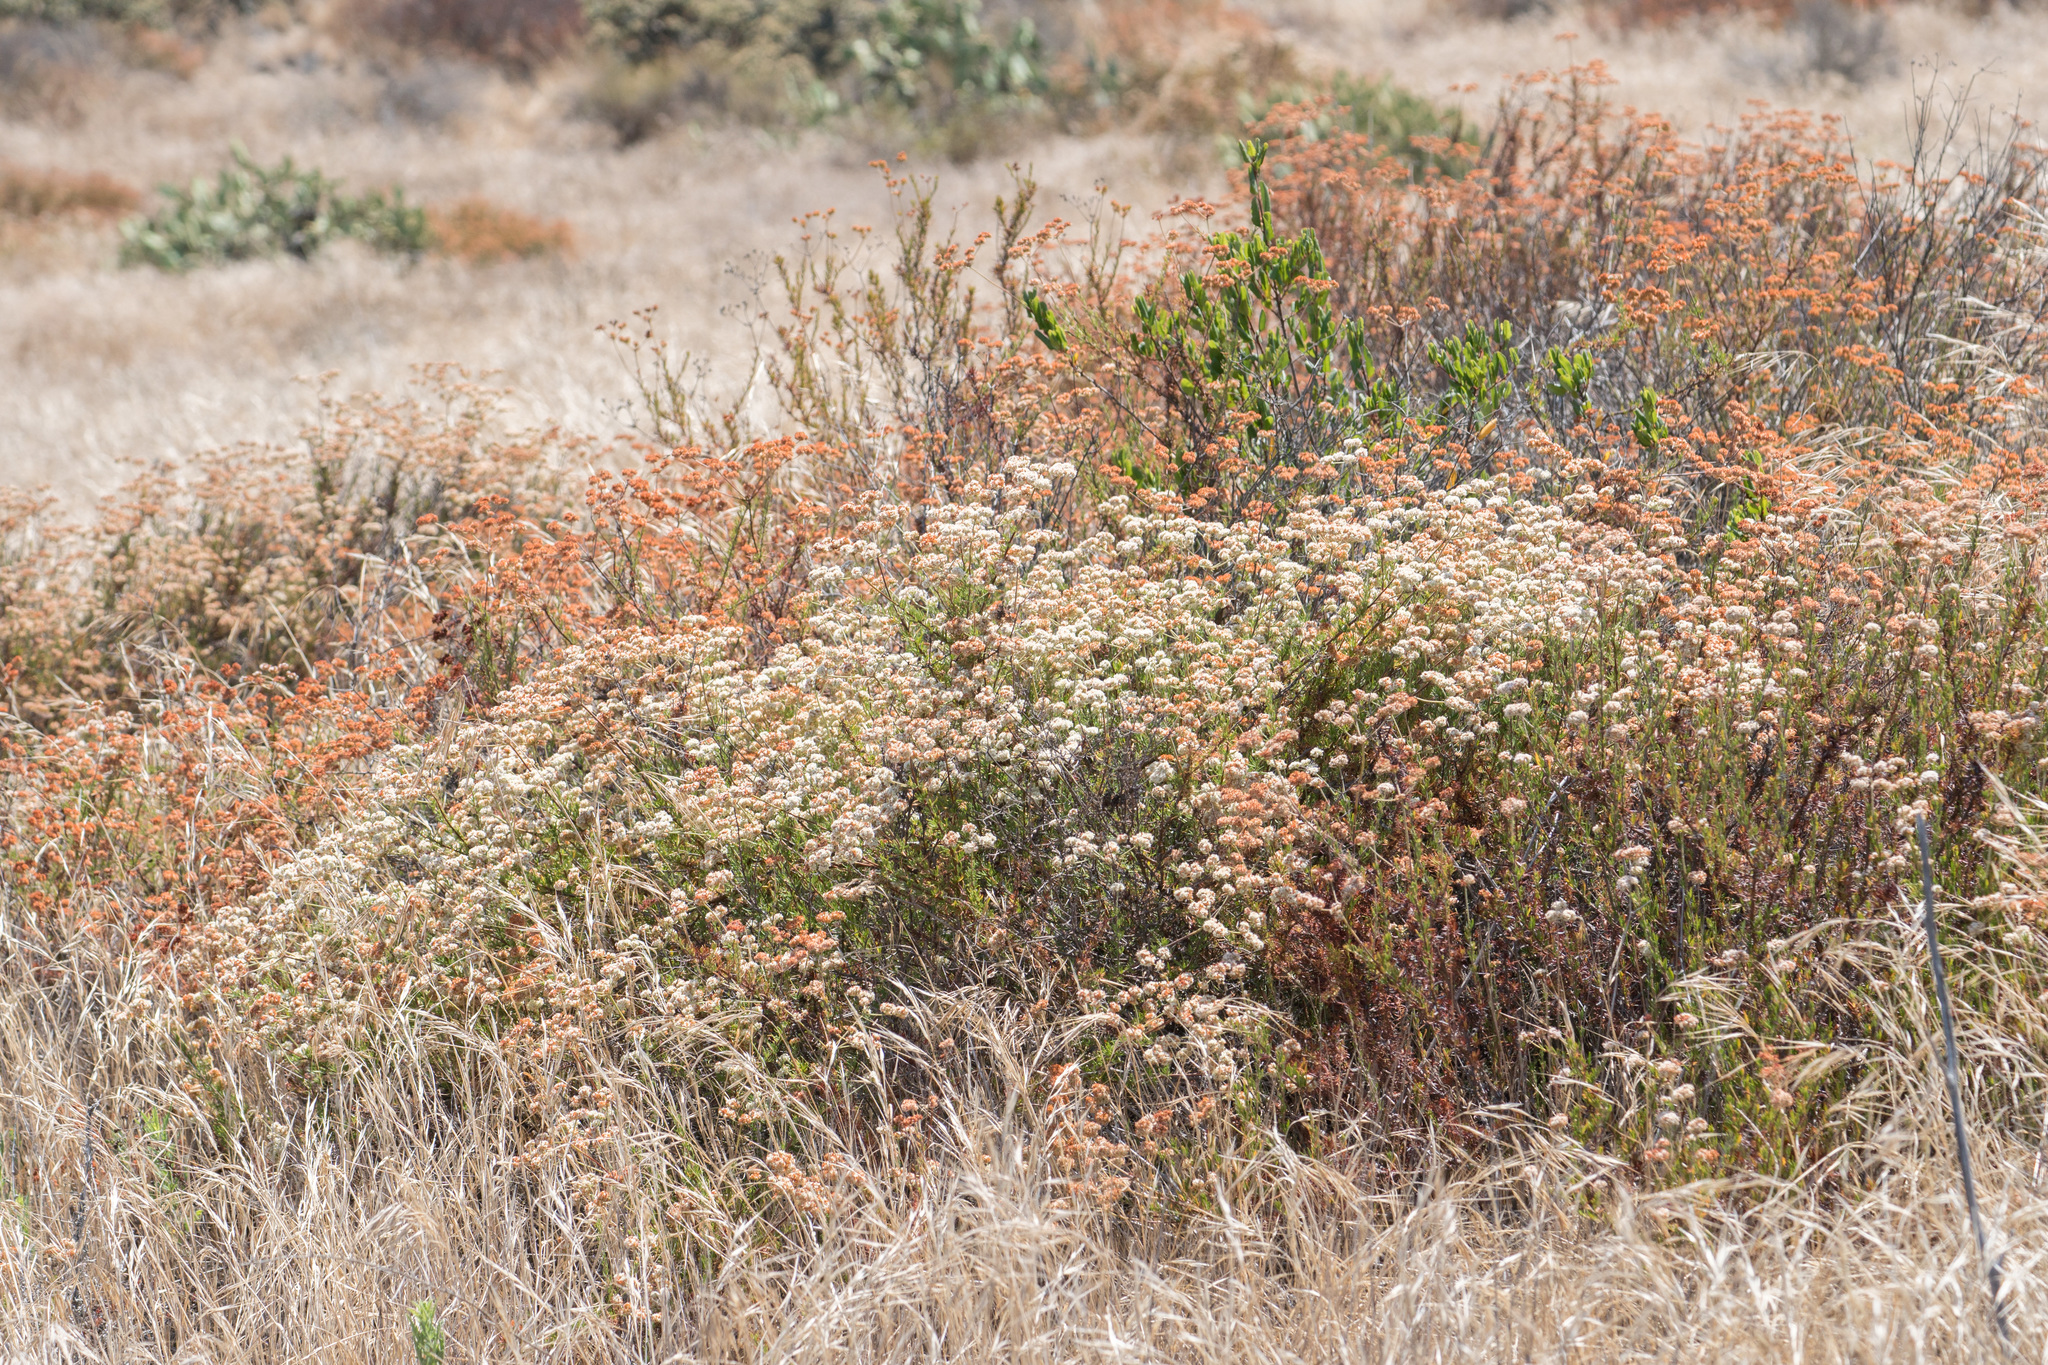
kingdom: Plantae
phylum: Tracheophyta
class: Magnoliopsida
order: Caryophyllales
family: Polygonaceae
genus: Eriogonum
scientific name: Eriogonum fasciculatum
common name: California wild buckwheat
